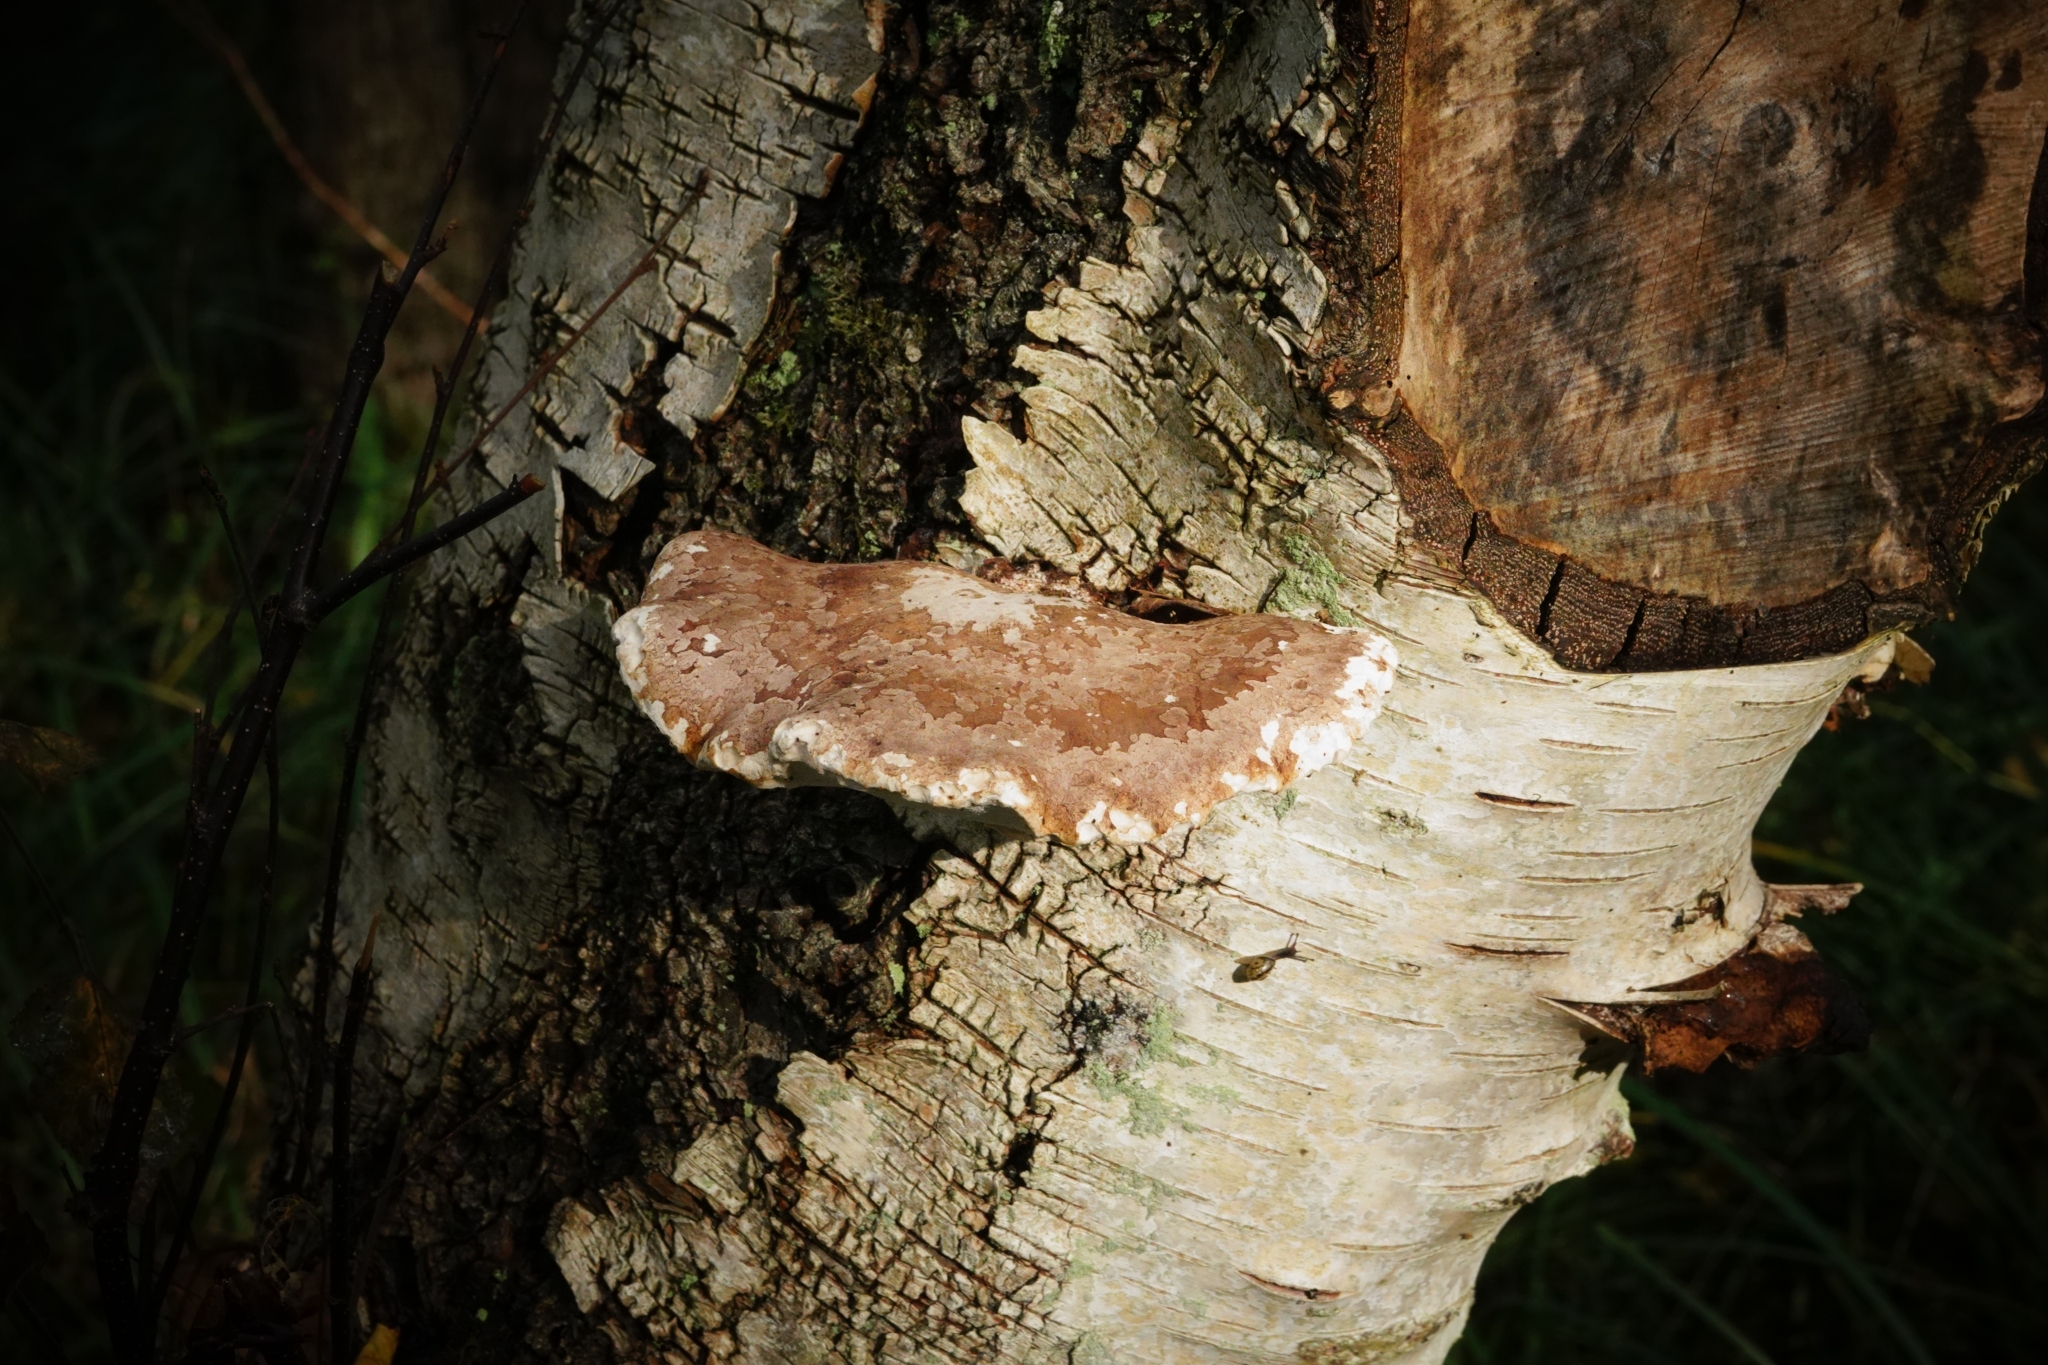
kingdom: Fungi
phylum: Basidiomycota
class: Agaricomycetes
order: Polyporales
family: Fomitopsidaceae
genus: Fomitopsis
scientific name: Fomitopsis betulina
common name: Birch polypore
